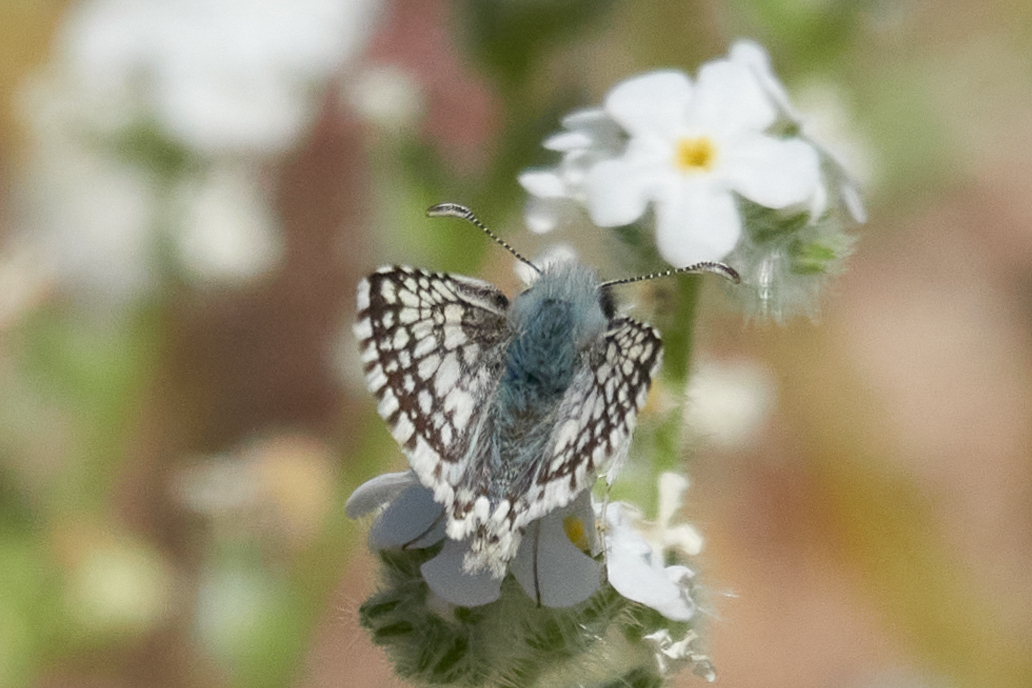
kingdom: Animalia
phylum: Arthropoda
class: Insecta
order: Lepidoptera
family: Hesperiidae
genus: Burnsius
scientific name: Burnsius albezens
